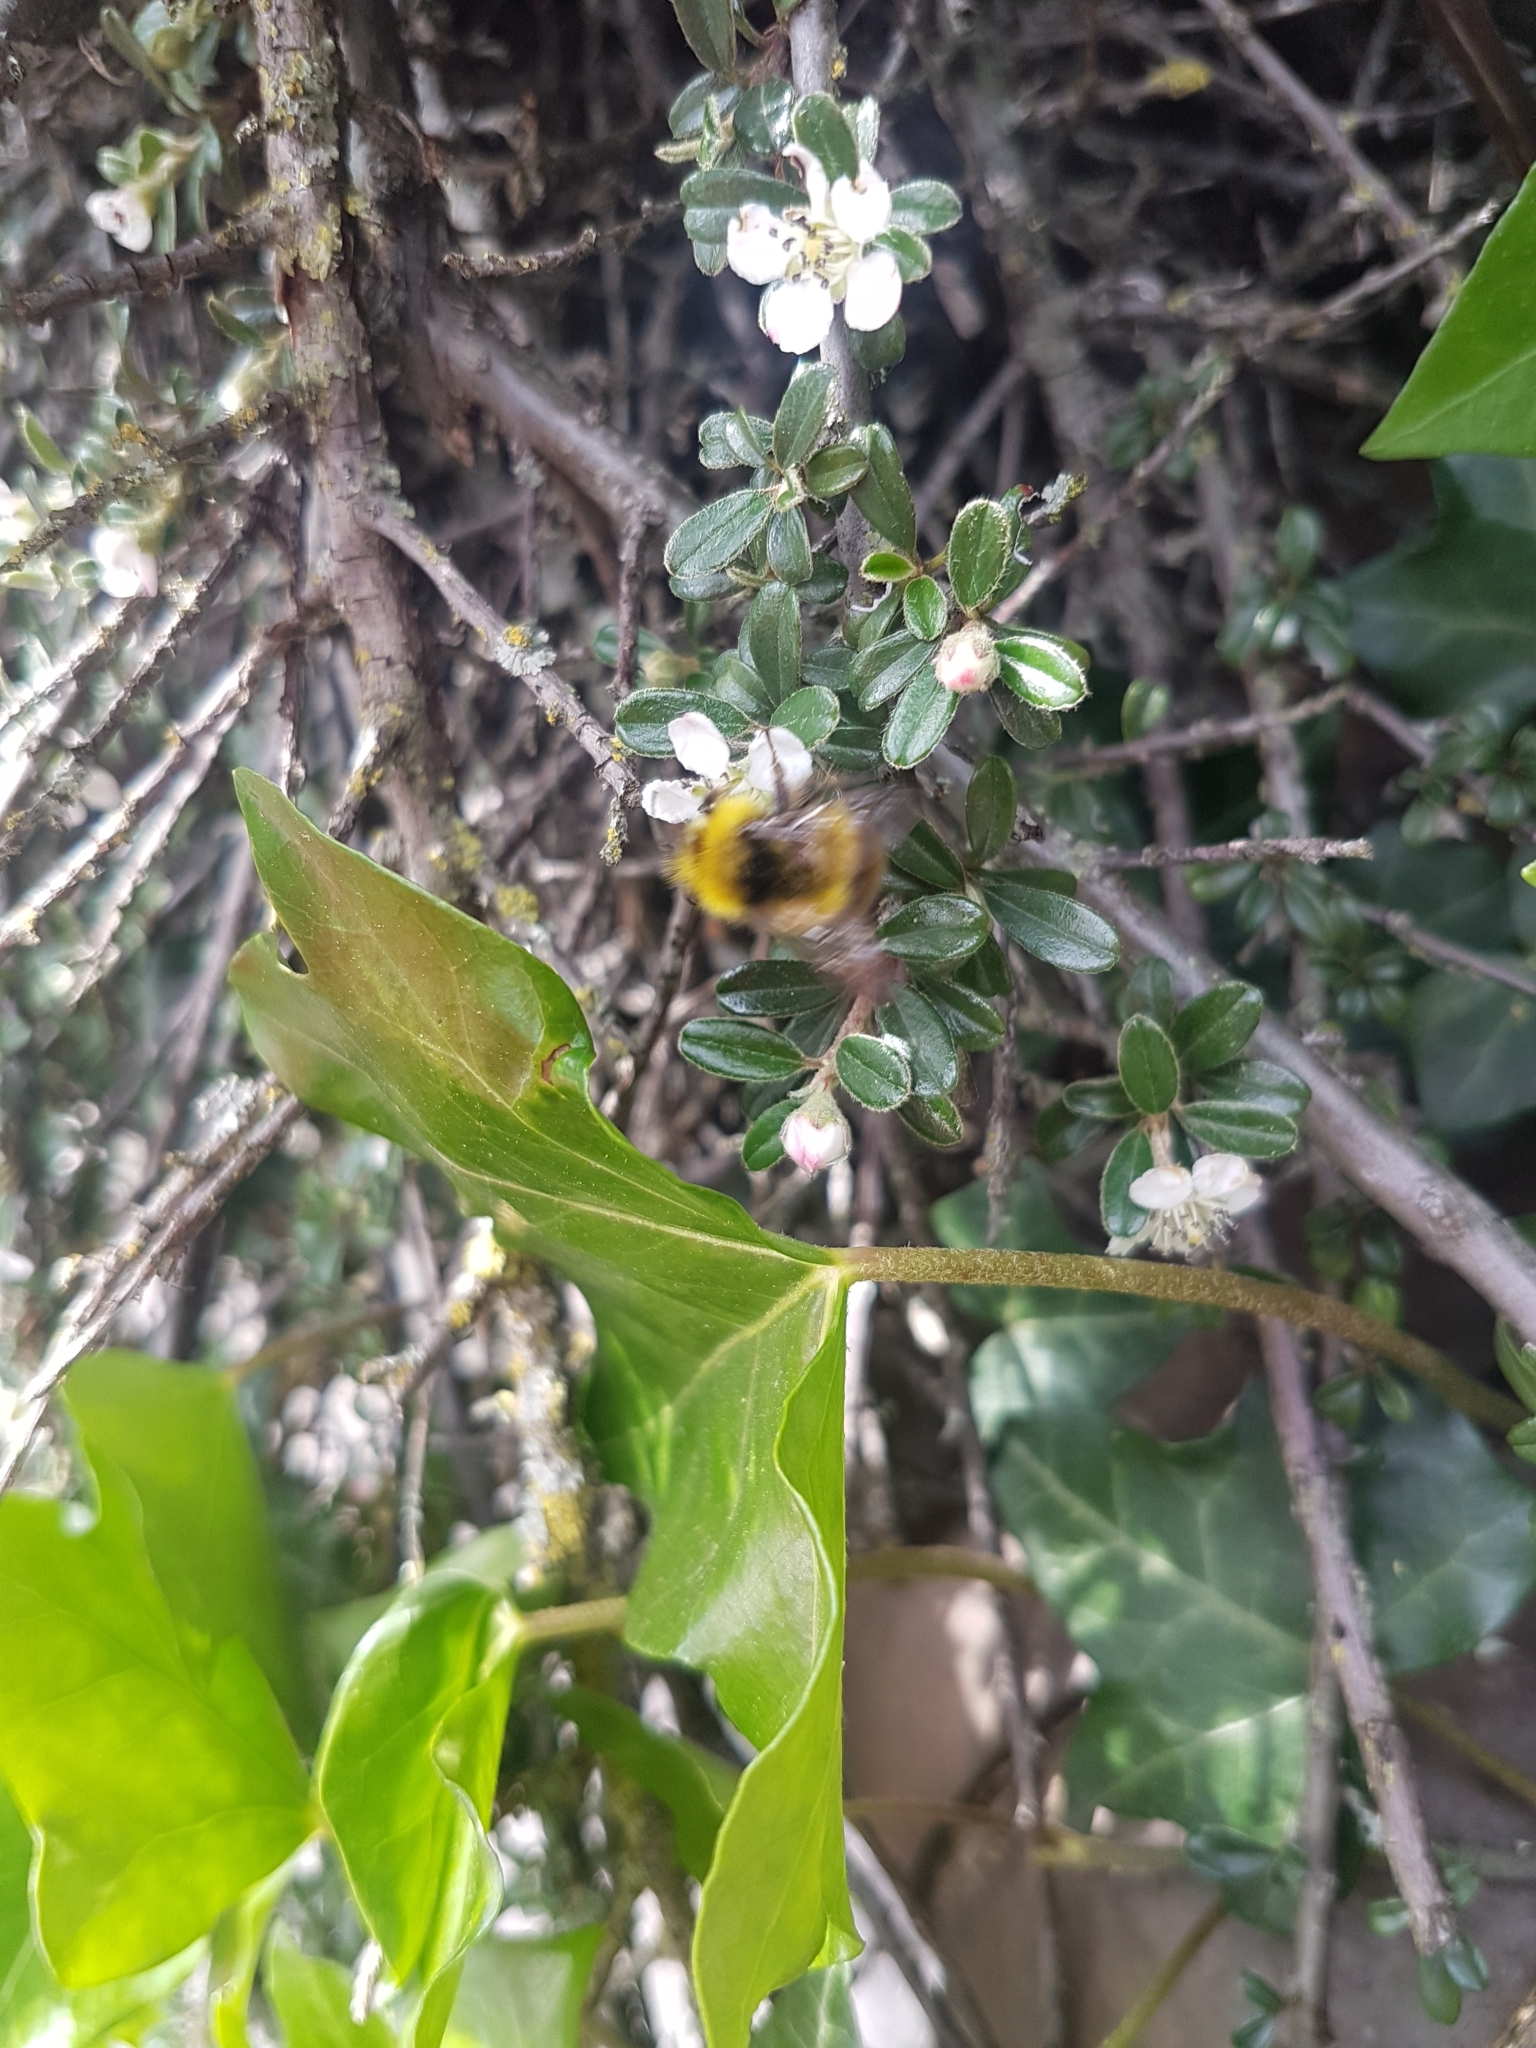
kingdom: Animalia
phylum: Arthropoda
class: Insecta
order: Hymenoptera
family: Apidae
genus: Bombus
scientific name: Bombus pratorum
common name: Early humble-bee
